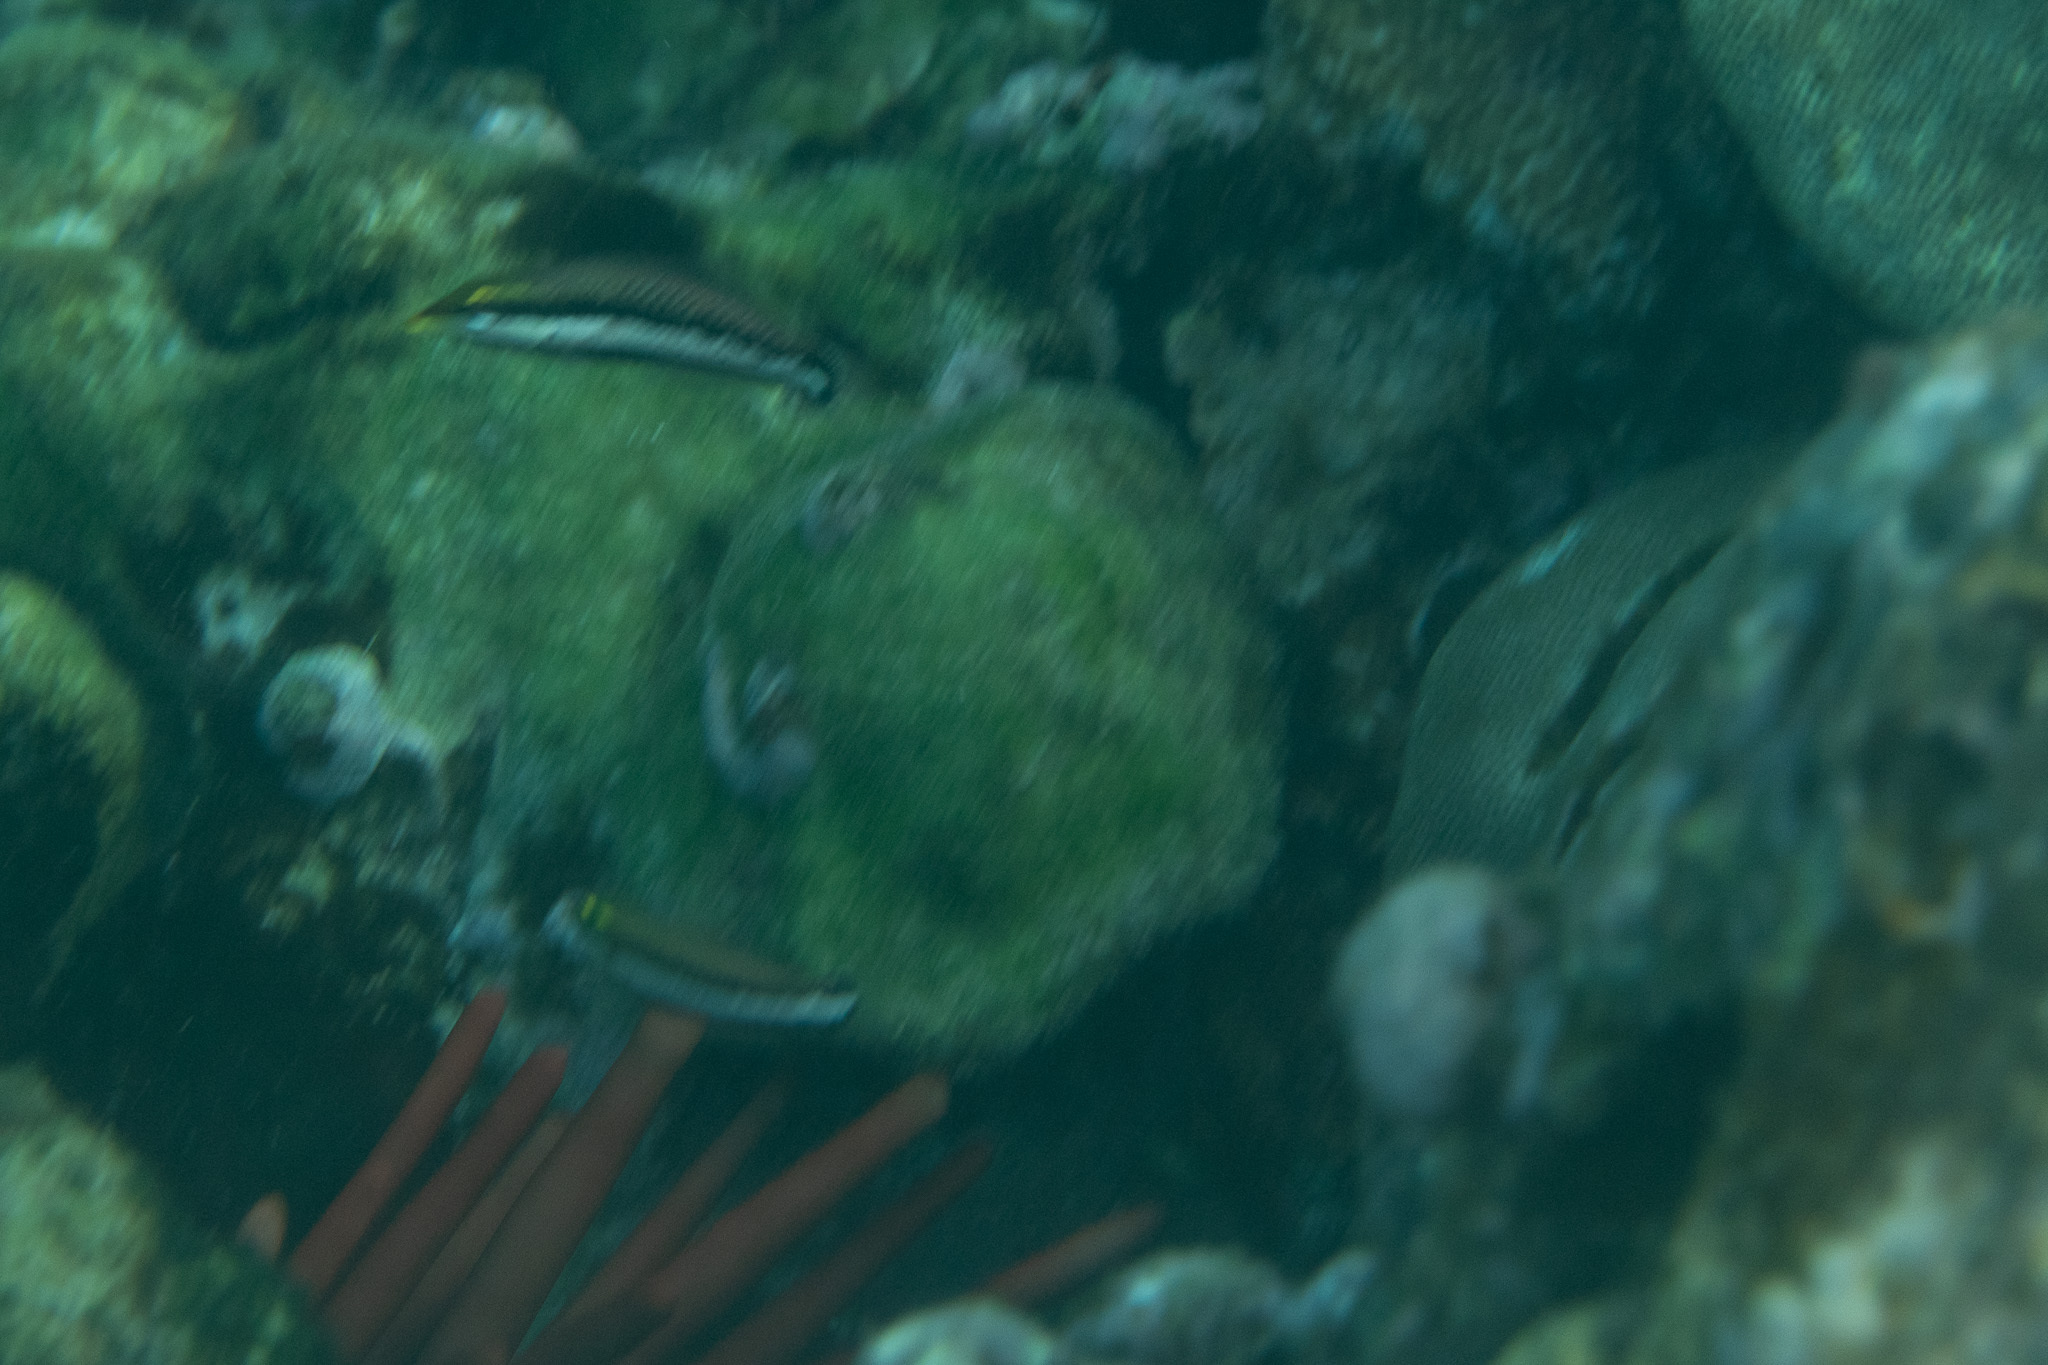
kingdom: Animalia
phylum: Chordata
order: Perciformes
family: Labridae
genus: Thalassoma
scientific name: Thalassoma duperrey
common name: Saddle wrasse
